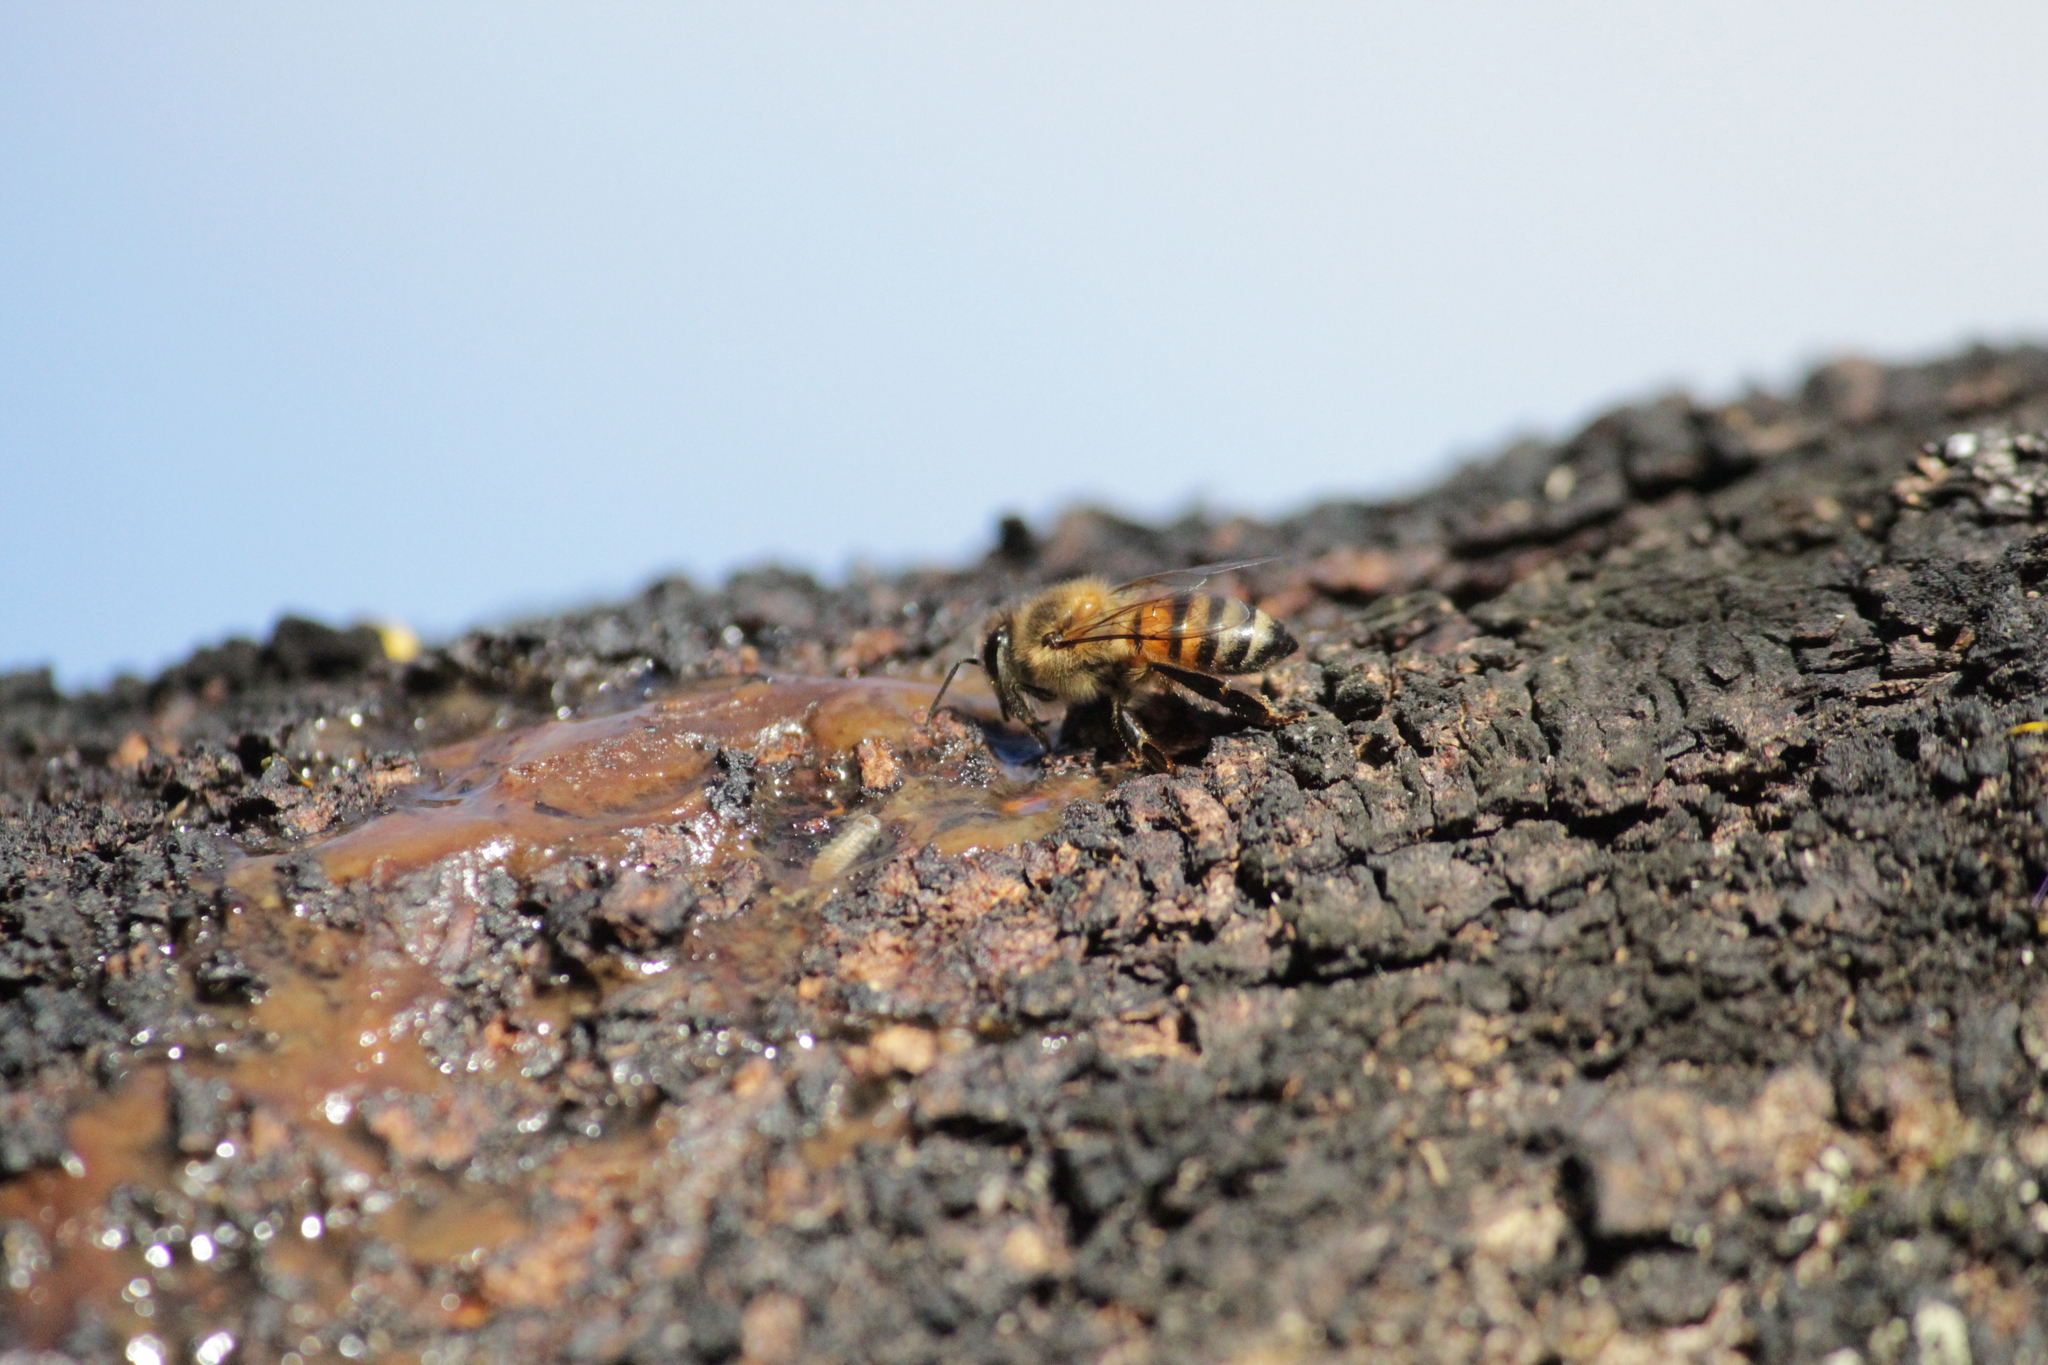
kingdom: Animalia
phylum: Arthropoda
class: Insecta
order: Hymenoptera
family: Apidae
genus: Apis
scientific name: Apis mellifera
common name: Honey bee
